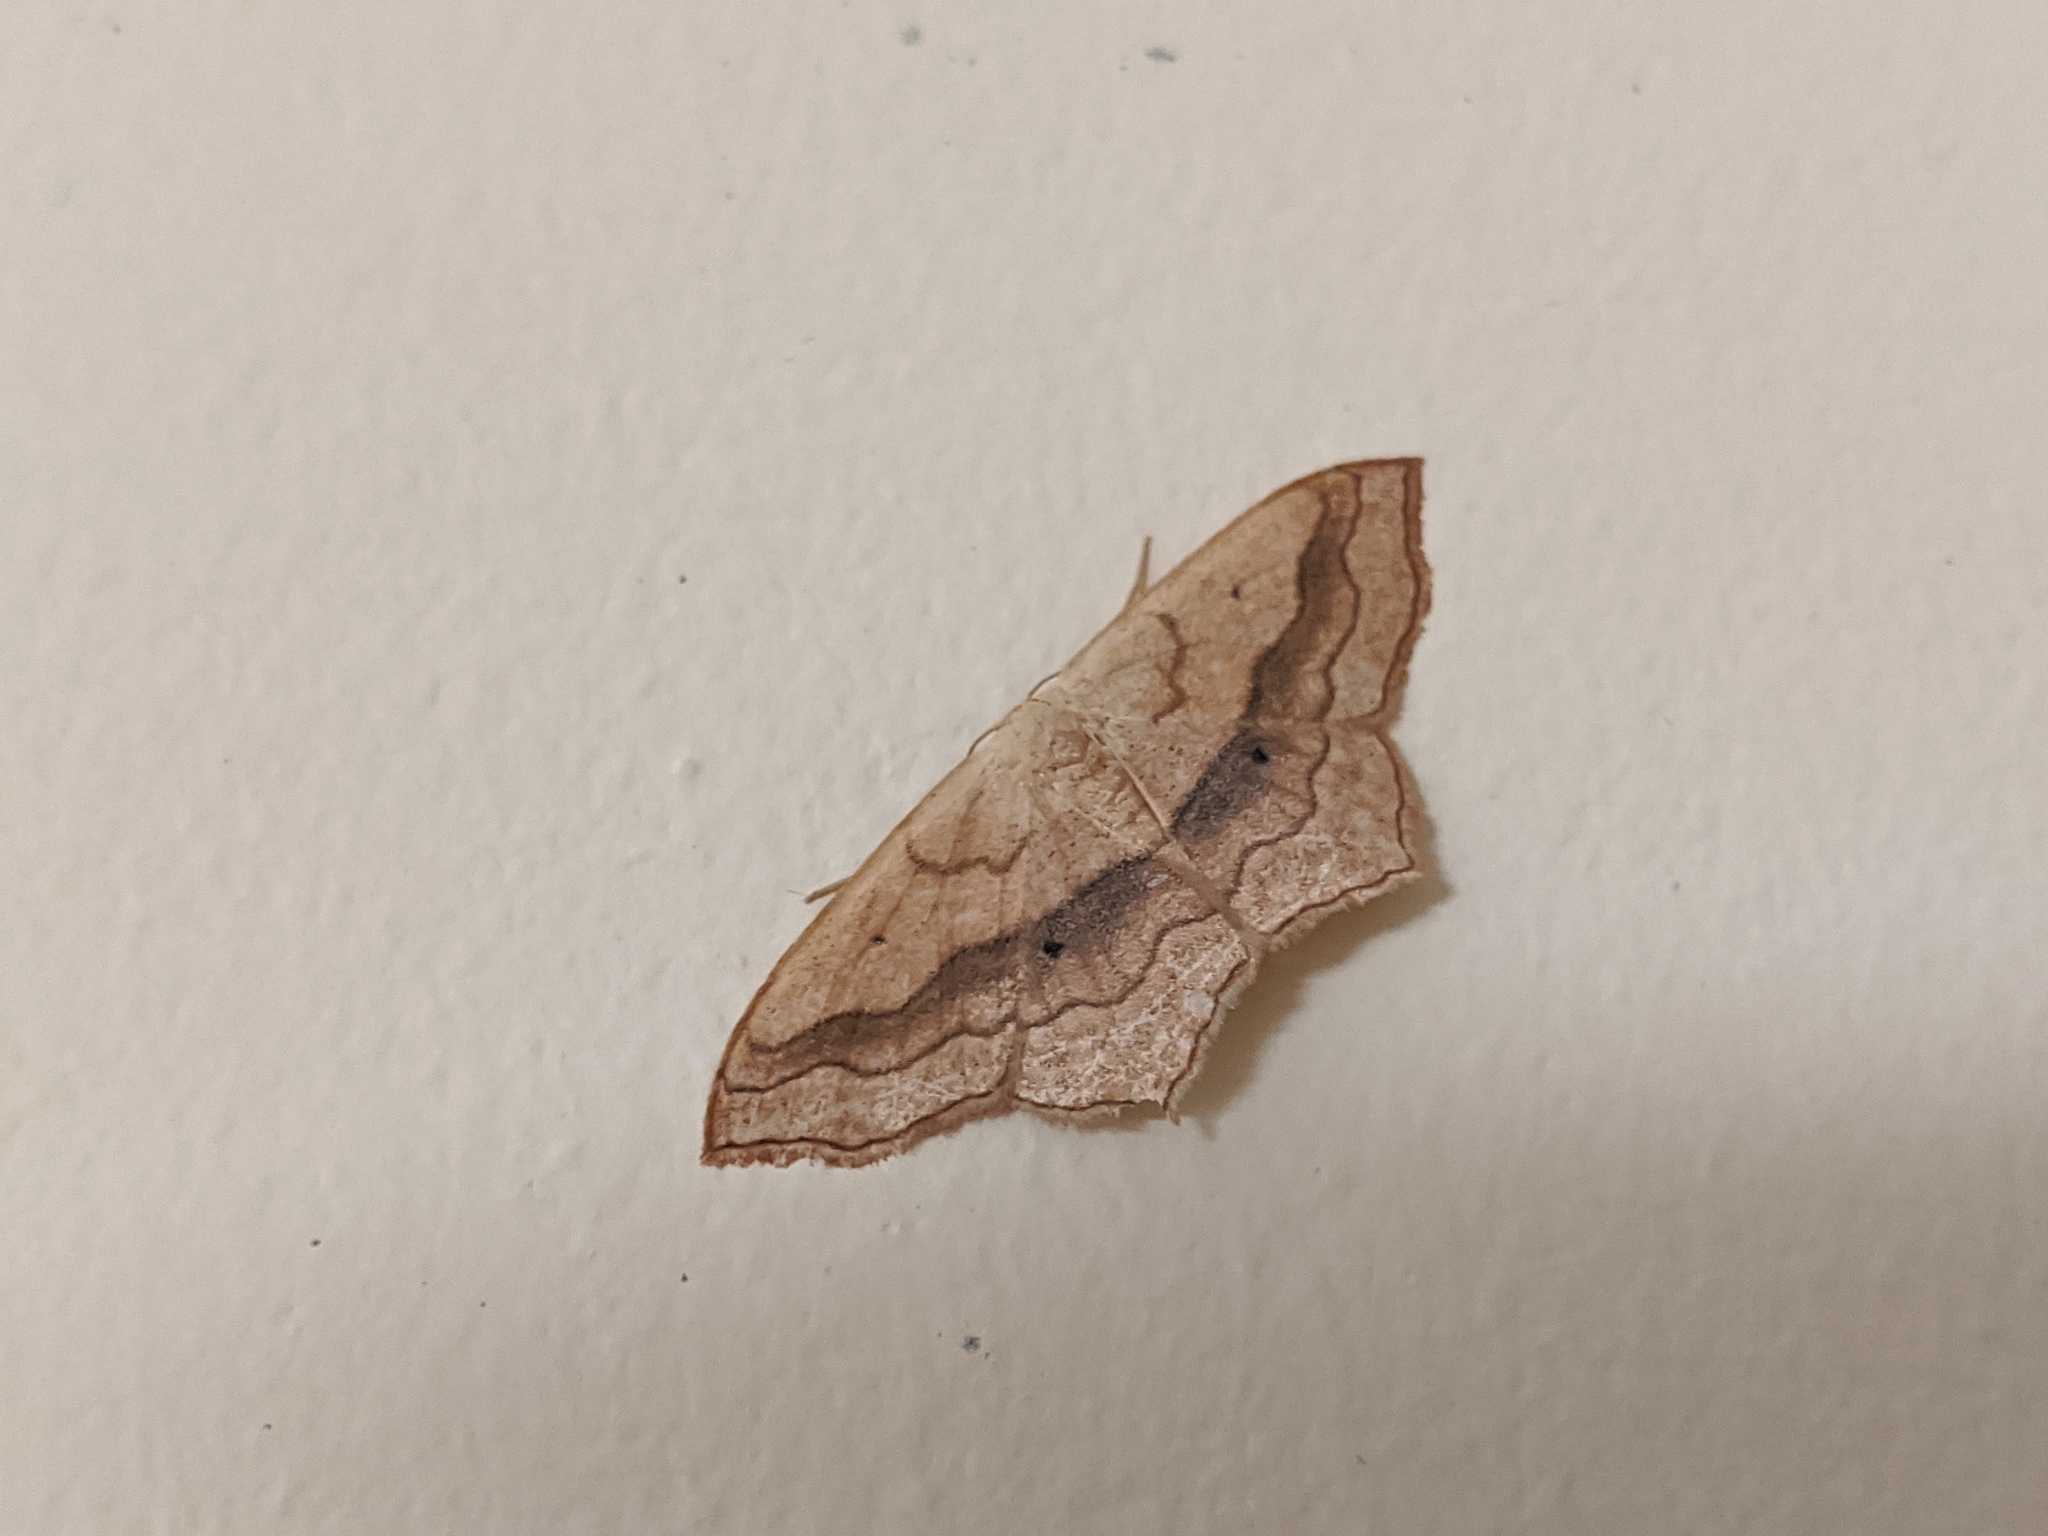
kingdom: Animalia
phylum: Arthropoda
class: Insecta
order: Lepidoptera
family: Geometridae
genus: Scopula
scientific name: Scopula imitaria
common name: Small blood-vein
